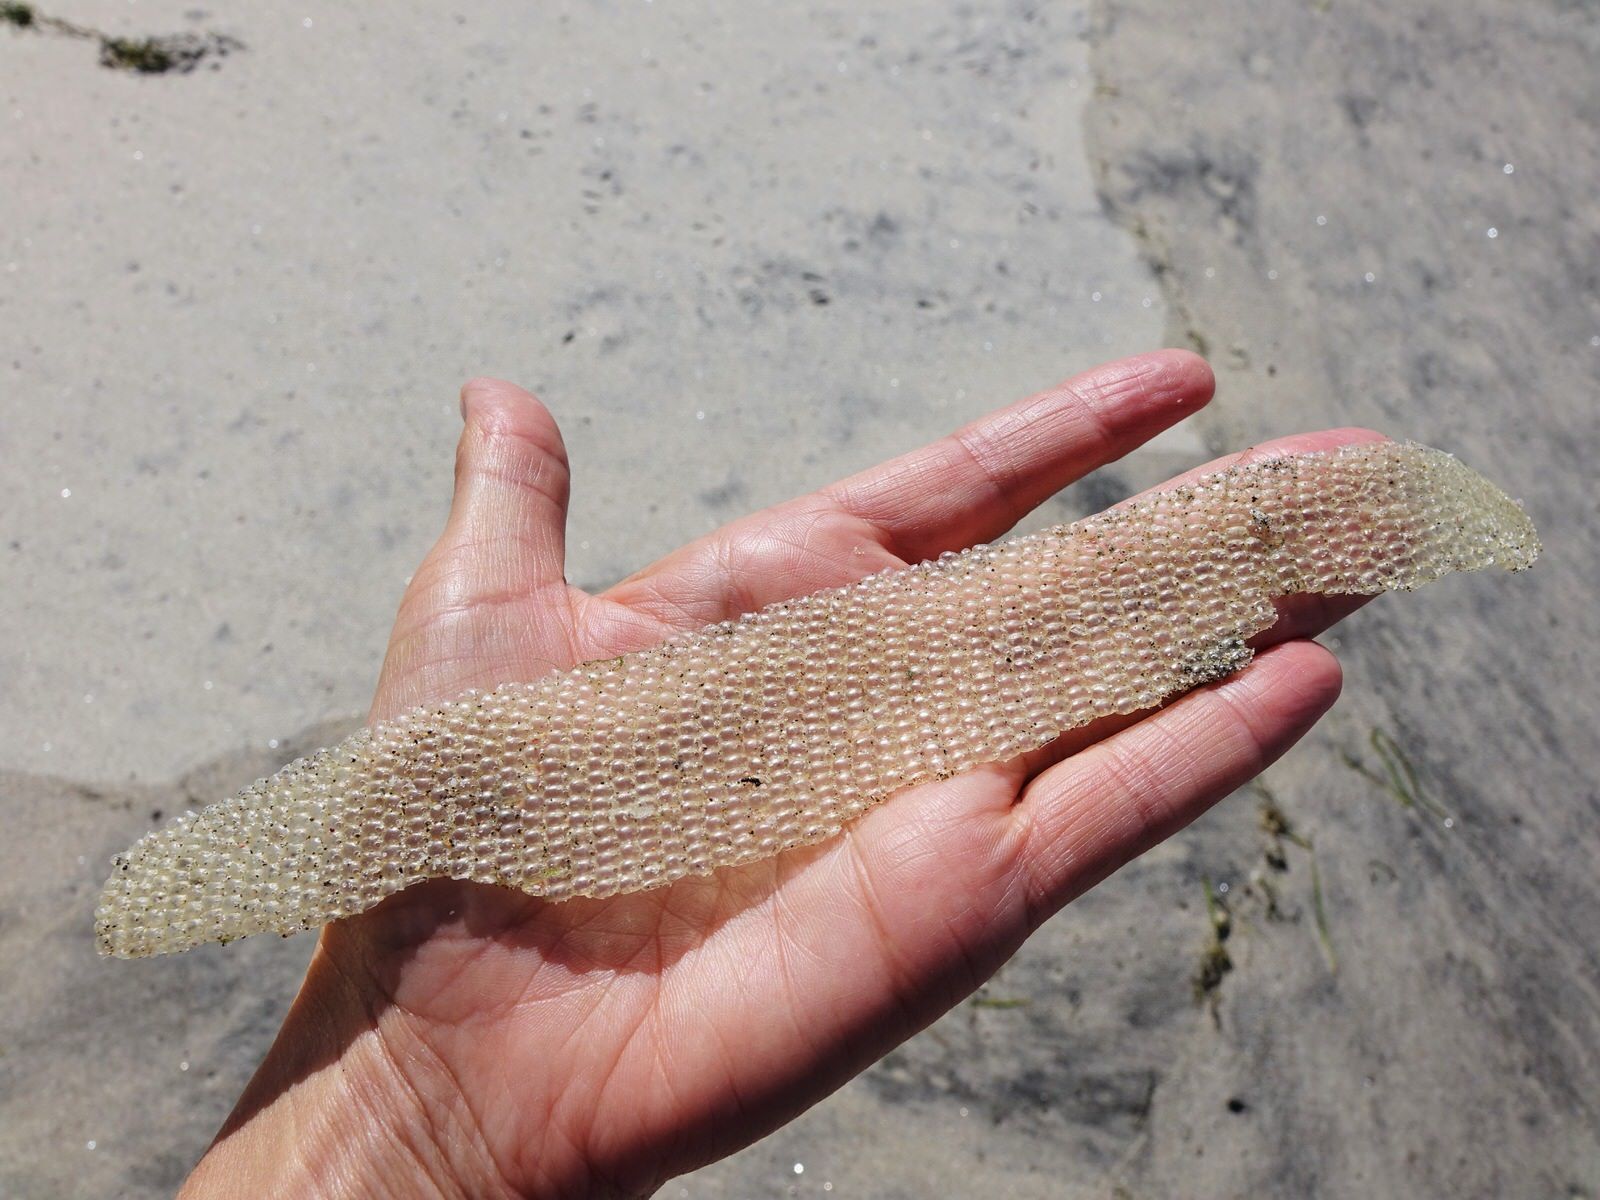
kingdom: Animalia
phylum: Mollusca
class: Gastropoda
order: Littorinimorpha
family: Tonnidae
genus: Tonna
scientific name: Tonna
